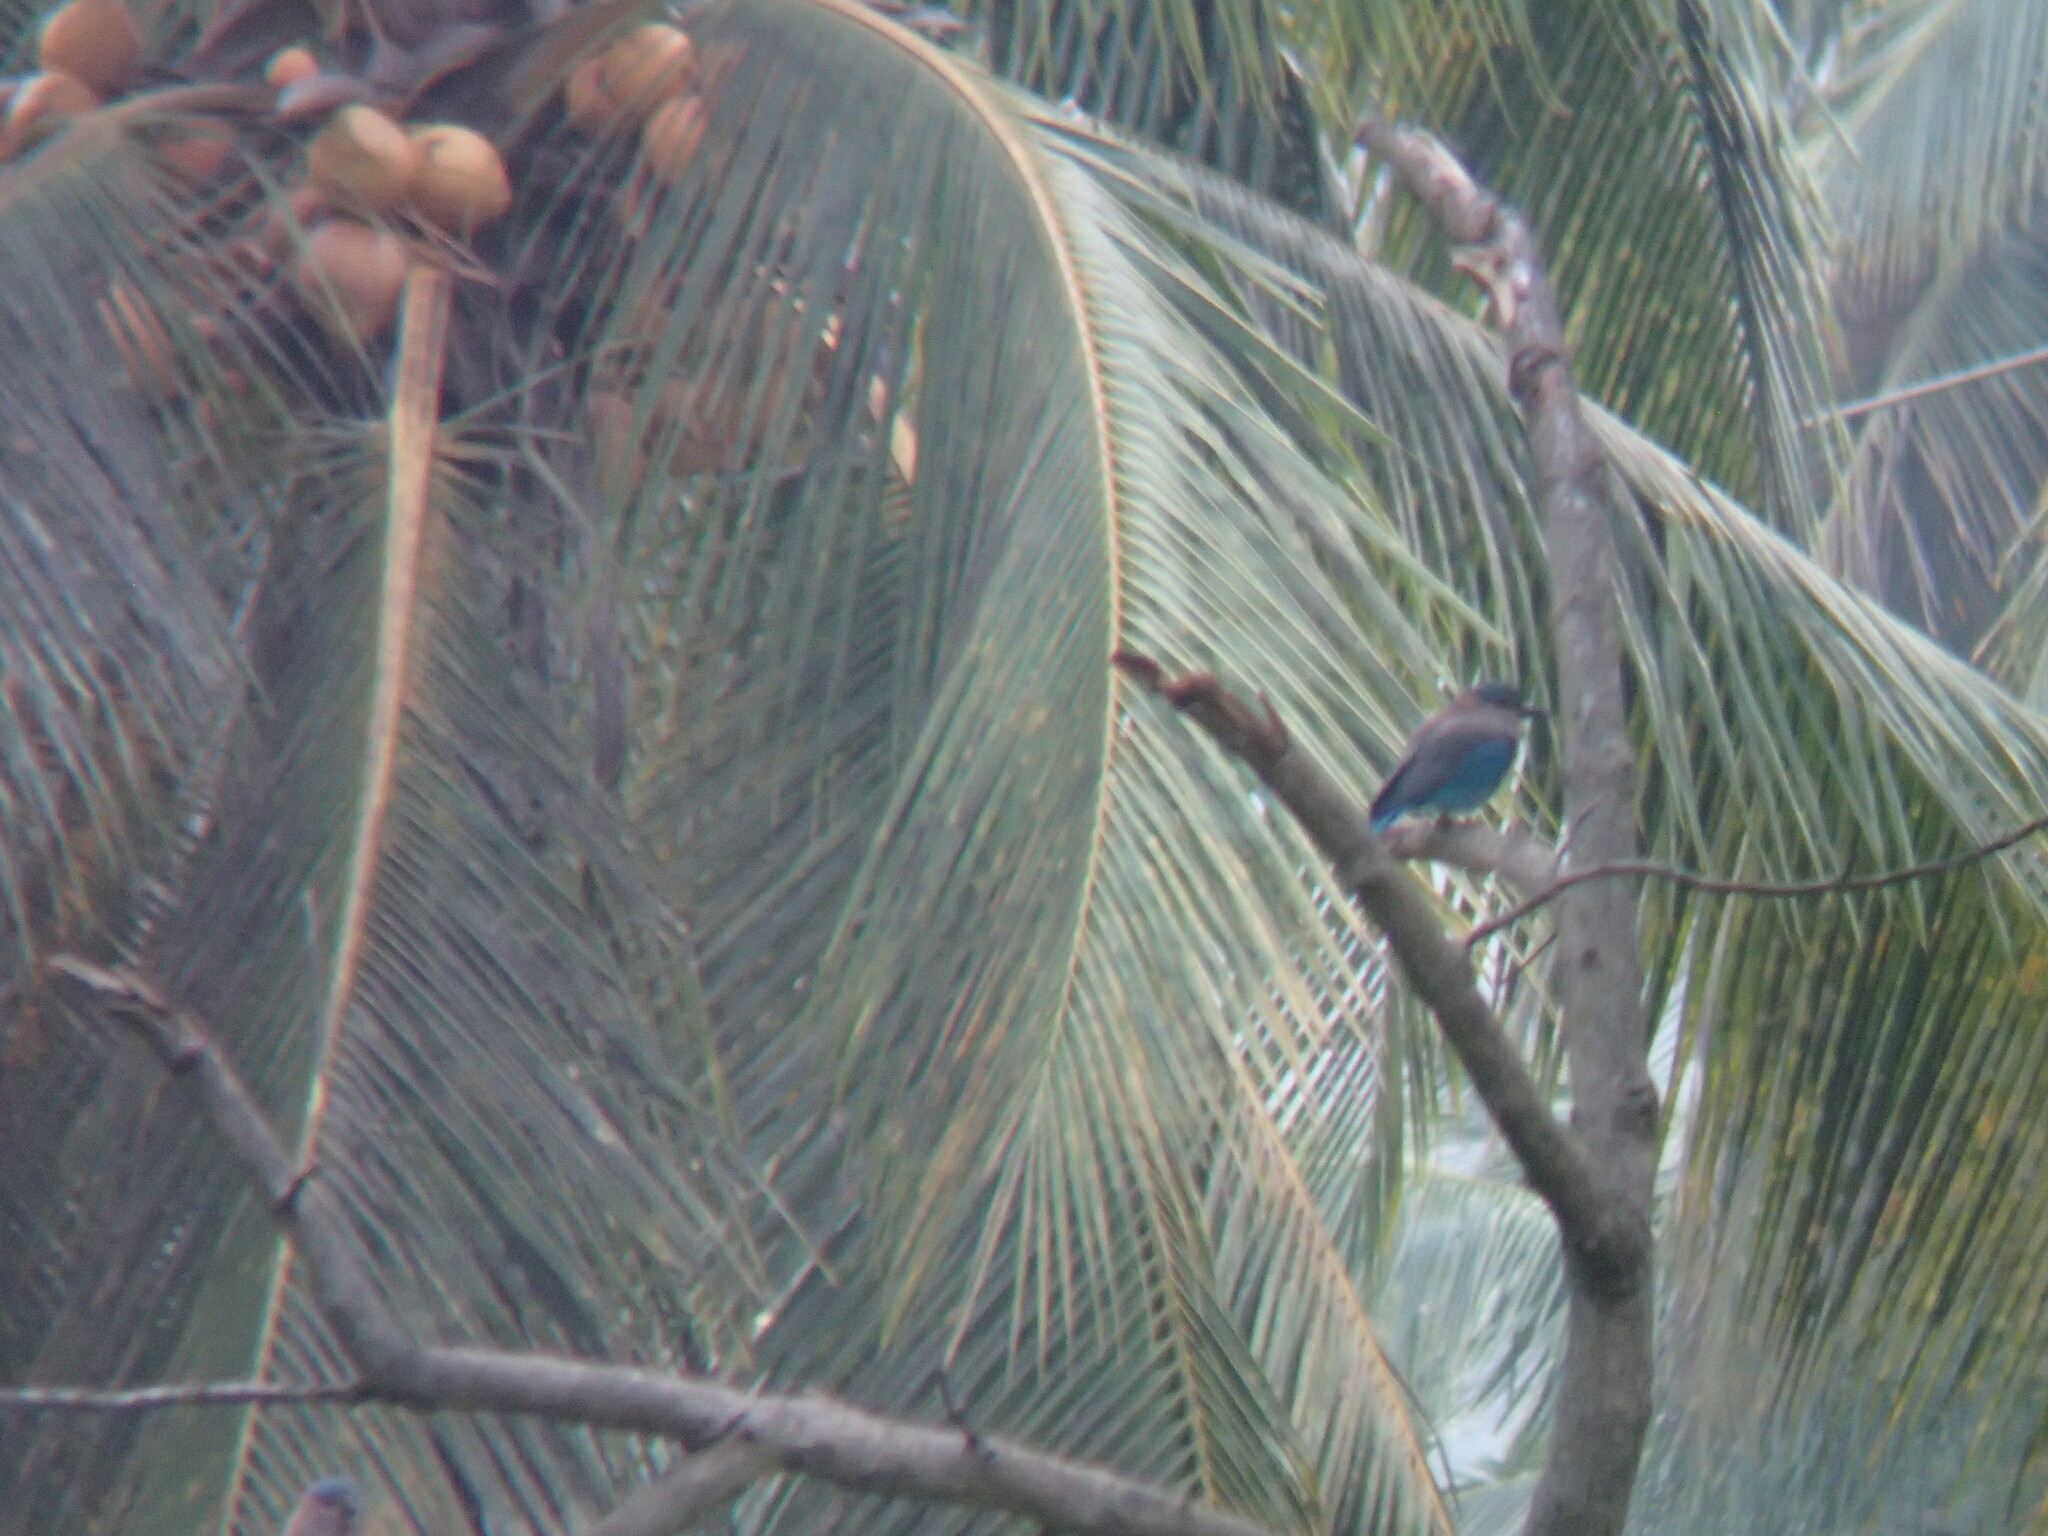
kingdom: Animalia
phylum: Chordata
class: Aves
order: Coraciiformes
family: Coraciidae
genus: Coracias
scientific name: Coracias benghalensis
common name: Indian roller
